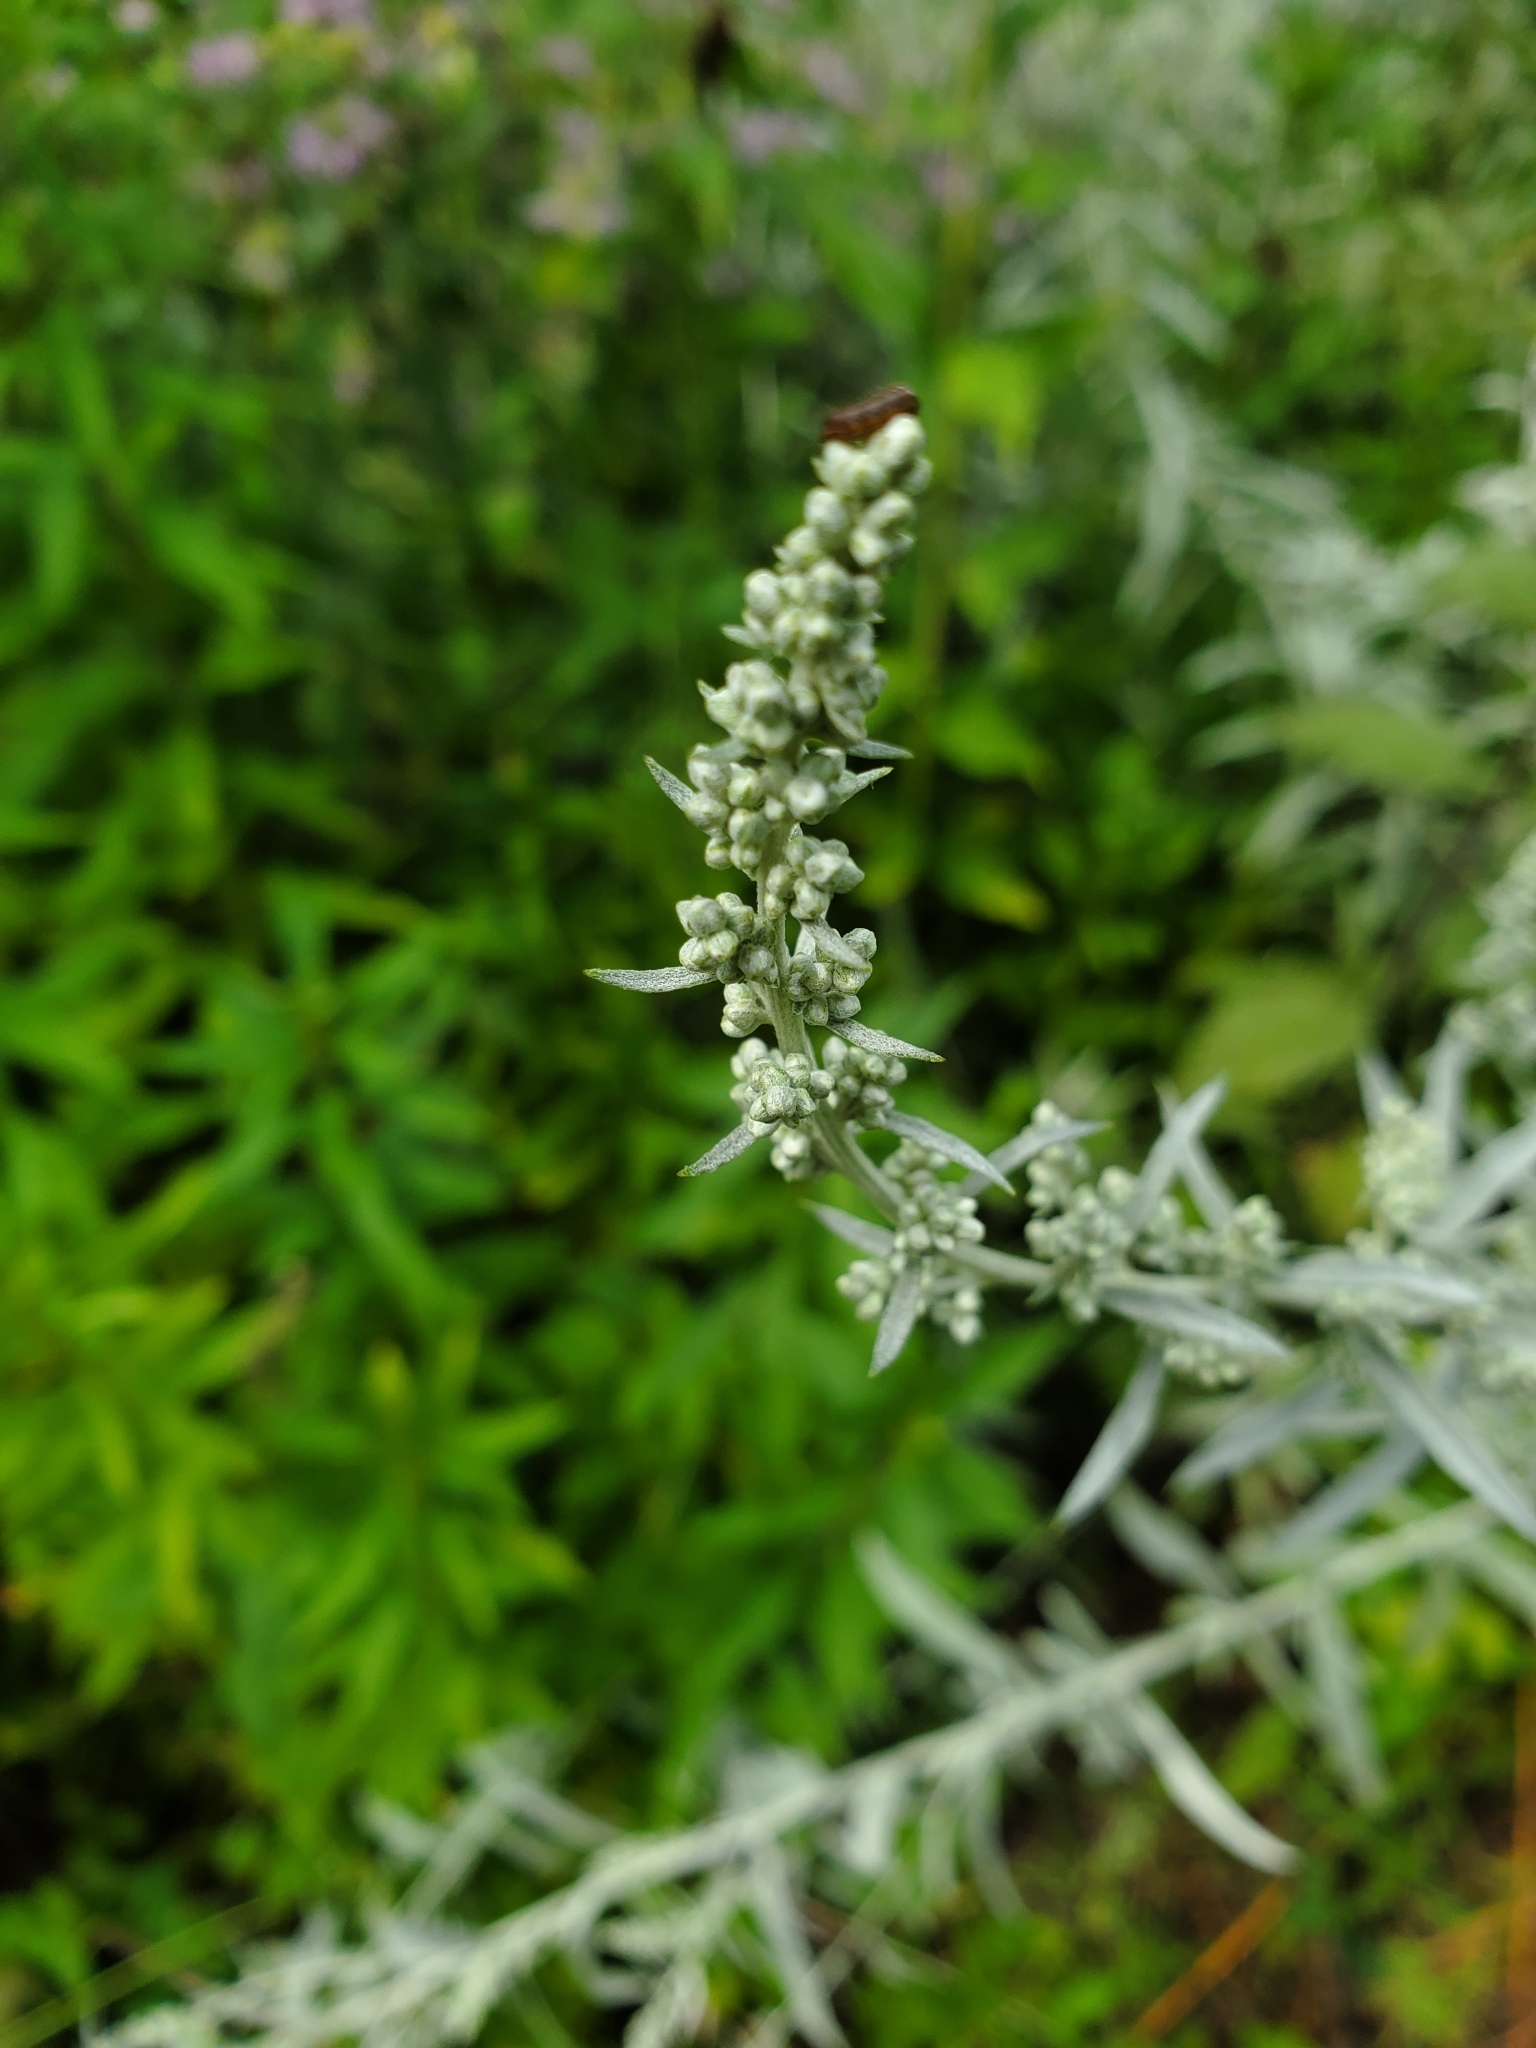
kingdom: Plantae
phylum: Tracheophyta
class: Magnoliopsida
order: Asterales
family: Asteraceae
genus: Artemisia
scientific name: Artemisia ludoviciana
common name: Western mugwort
